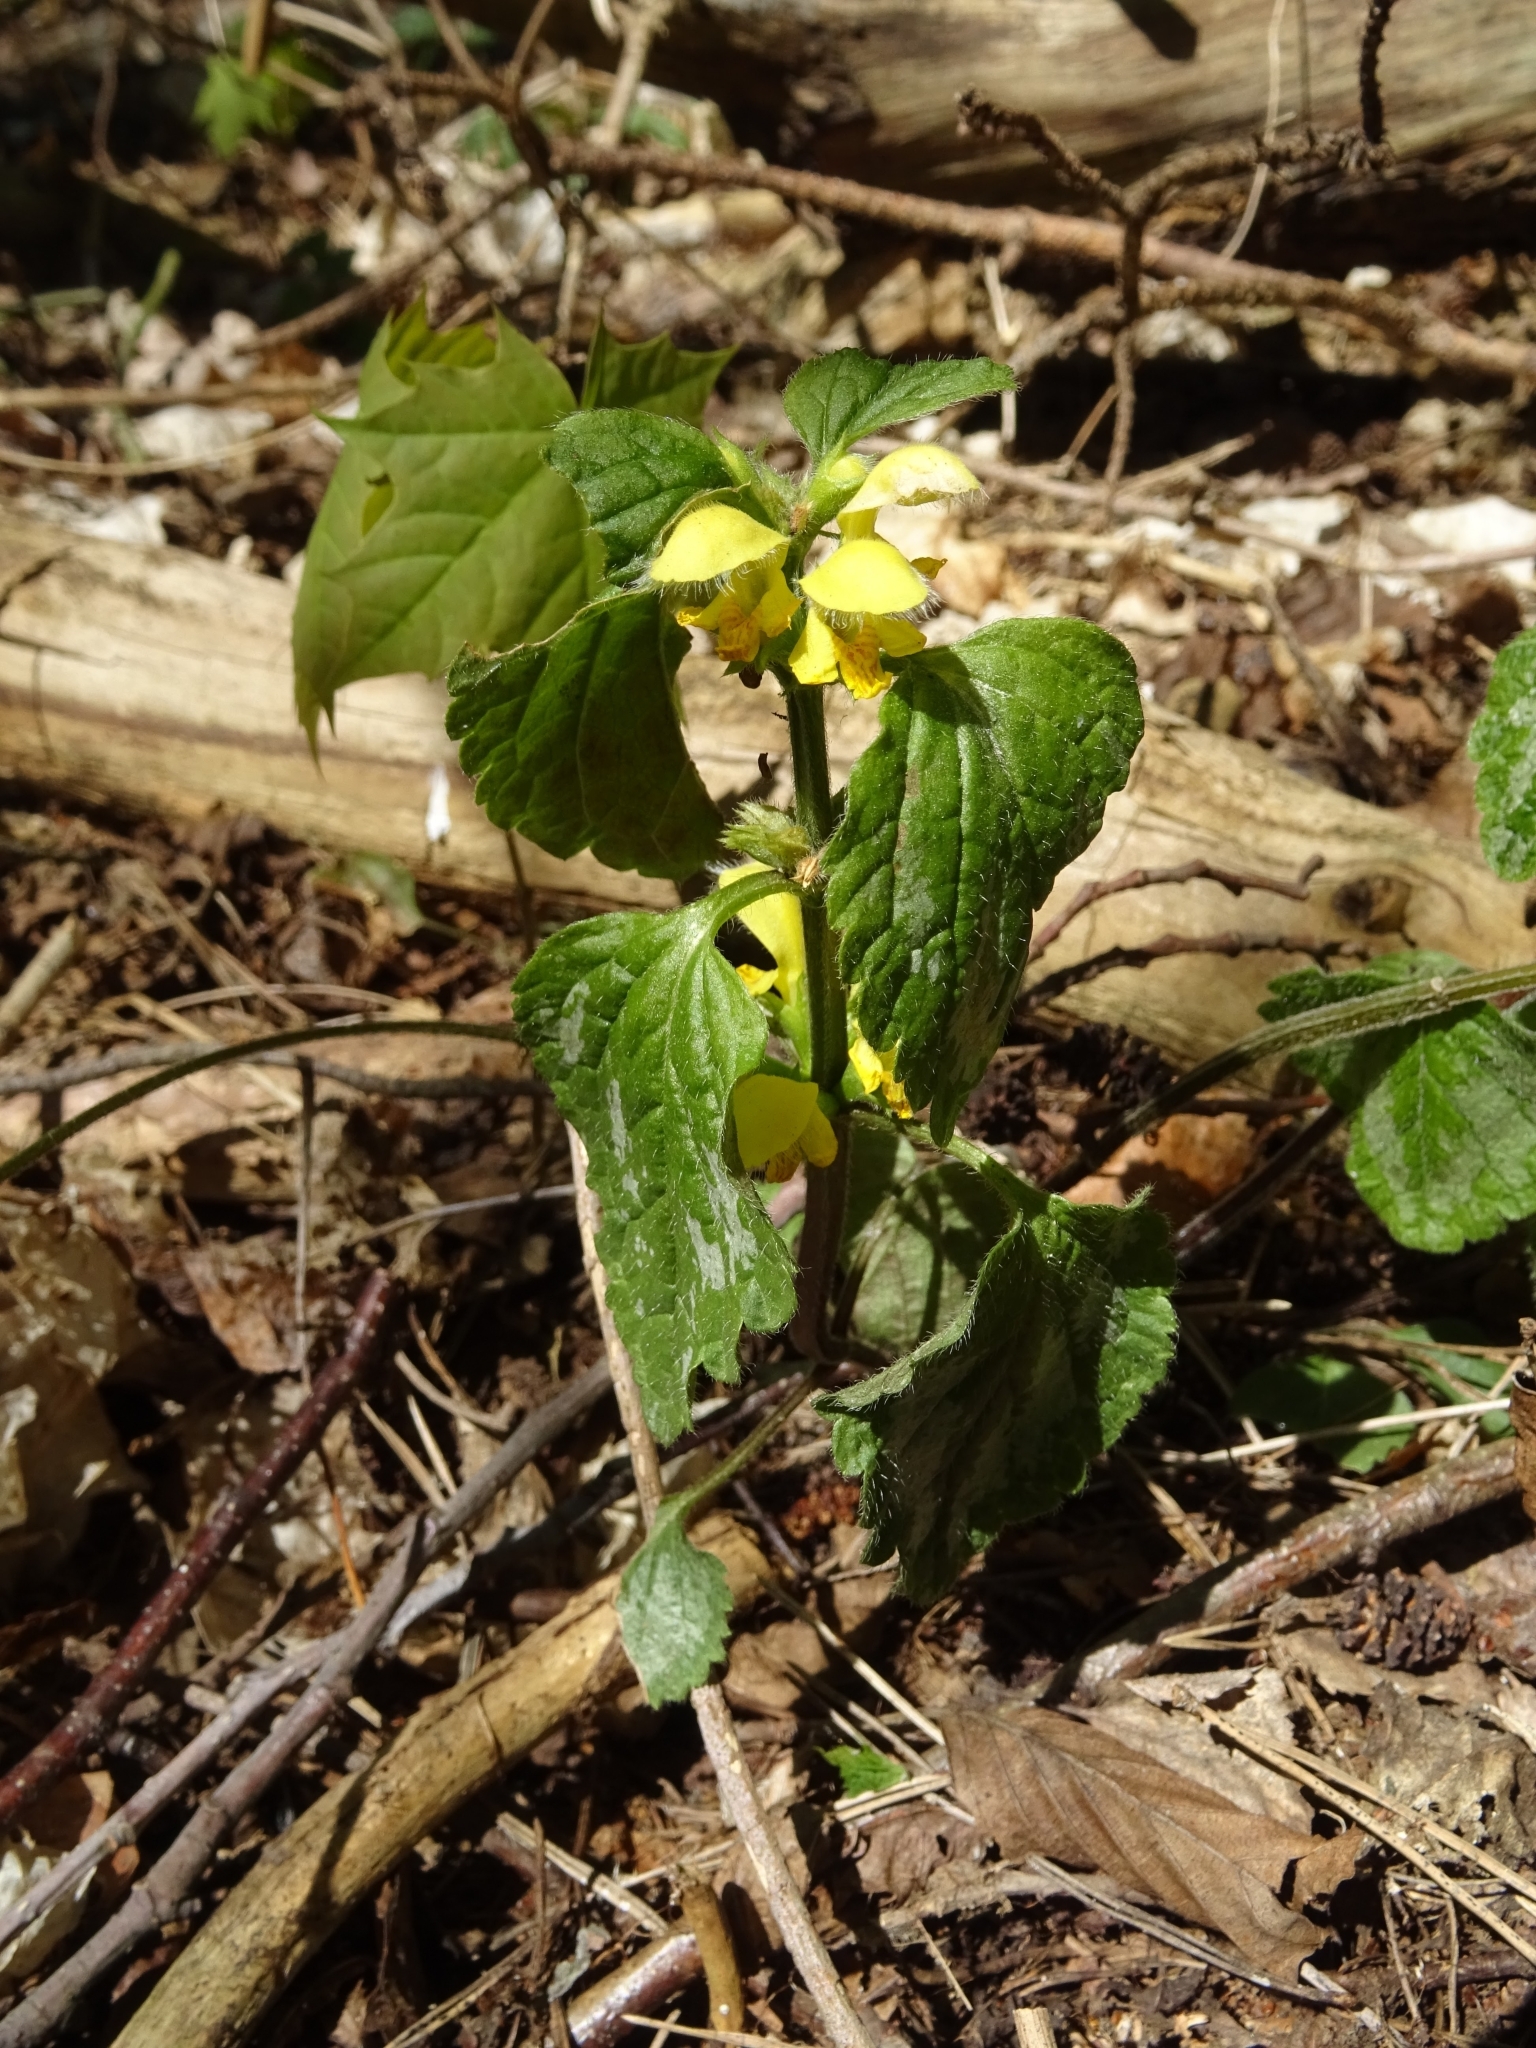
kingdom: Plantae
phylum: Tracheophyta
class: Magnoliopsida
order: Lamiales
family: Lamiaceae
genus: Lamium
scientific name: Lamium galeobdolon
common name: Yellow archangel
